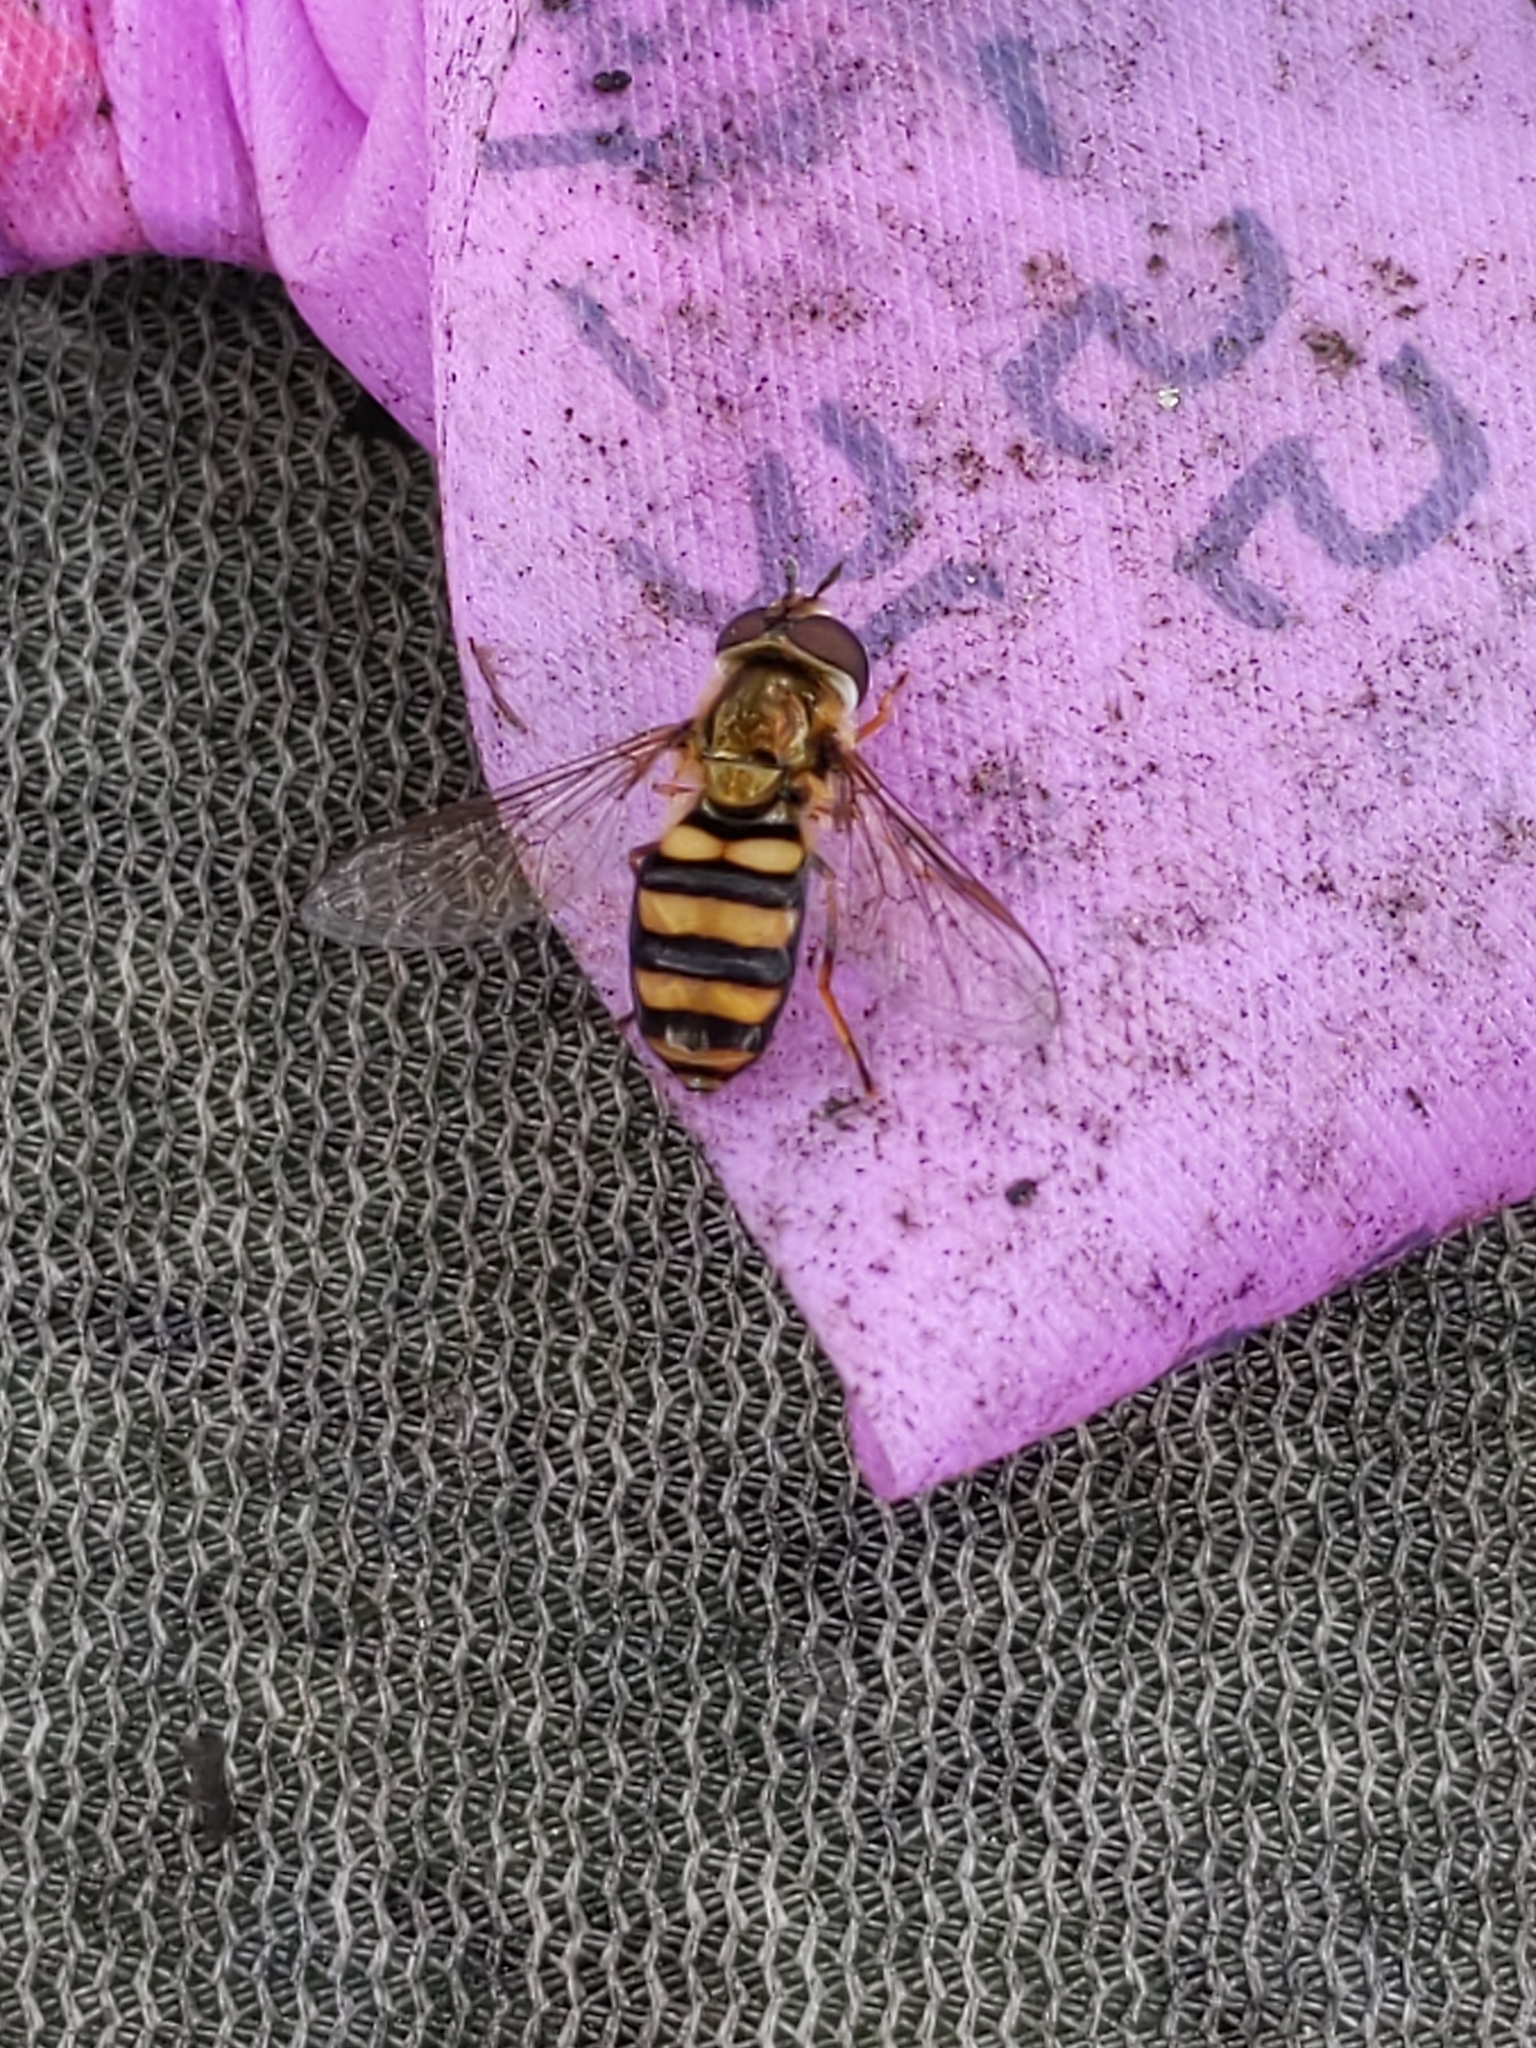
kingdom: Animalia
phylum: Arthropoda
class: Insecta
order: Diptera
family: Syrphidae
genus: Eupeodes
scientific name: Eupeodes
